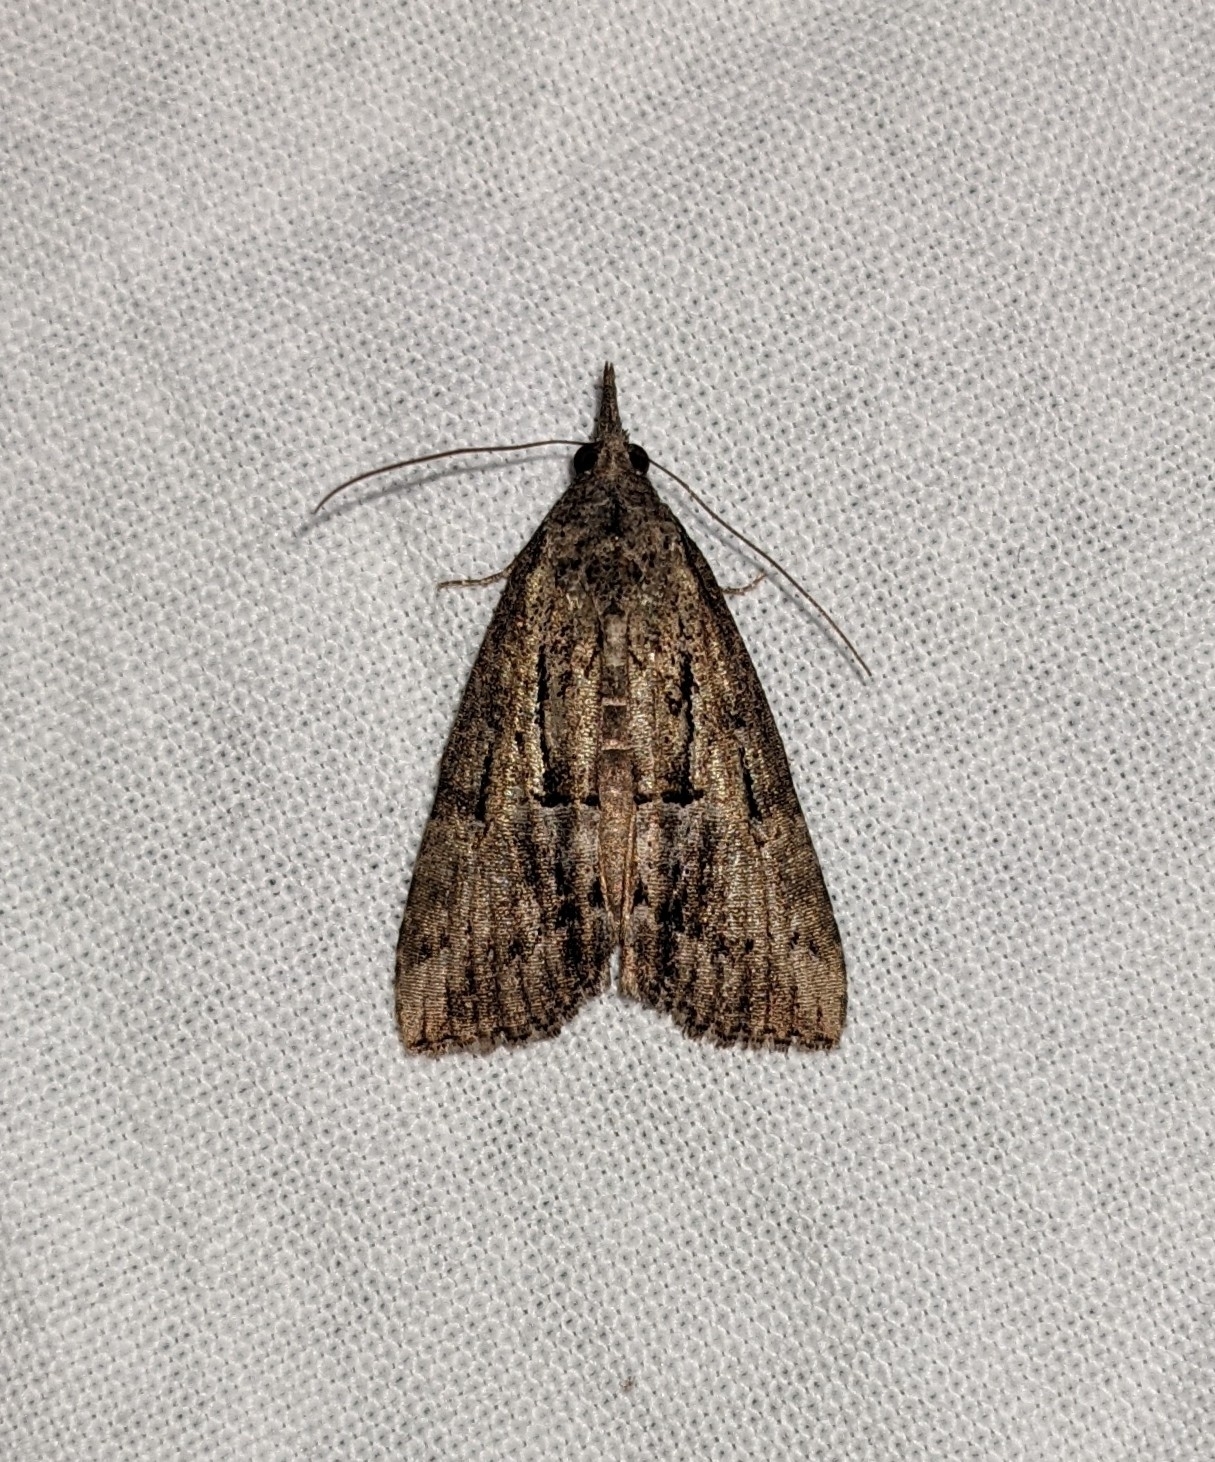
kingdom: Animalia
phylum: Arthropoda
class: Insecta
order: Lepidoptera
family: Erebidae
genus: Hypena
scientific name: Hypena scabra
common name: Green cloverworm
